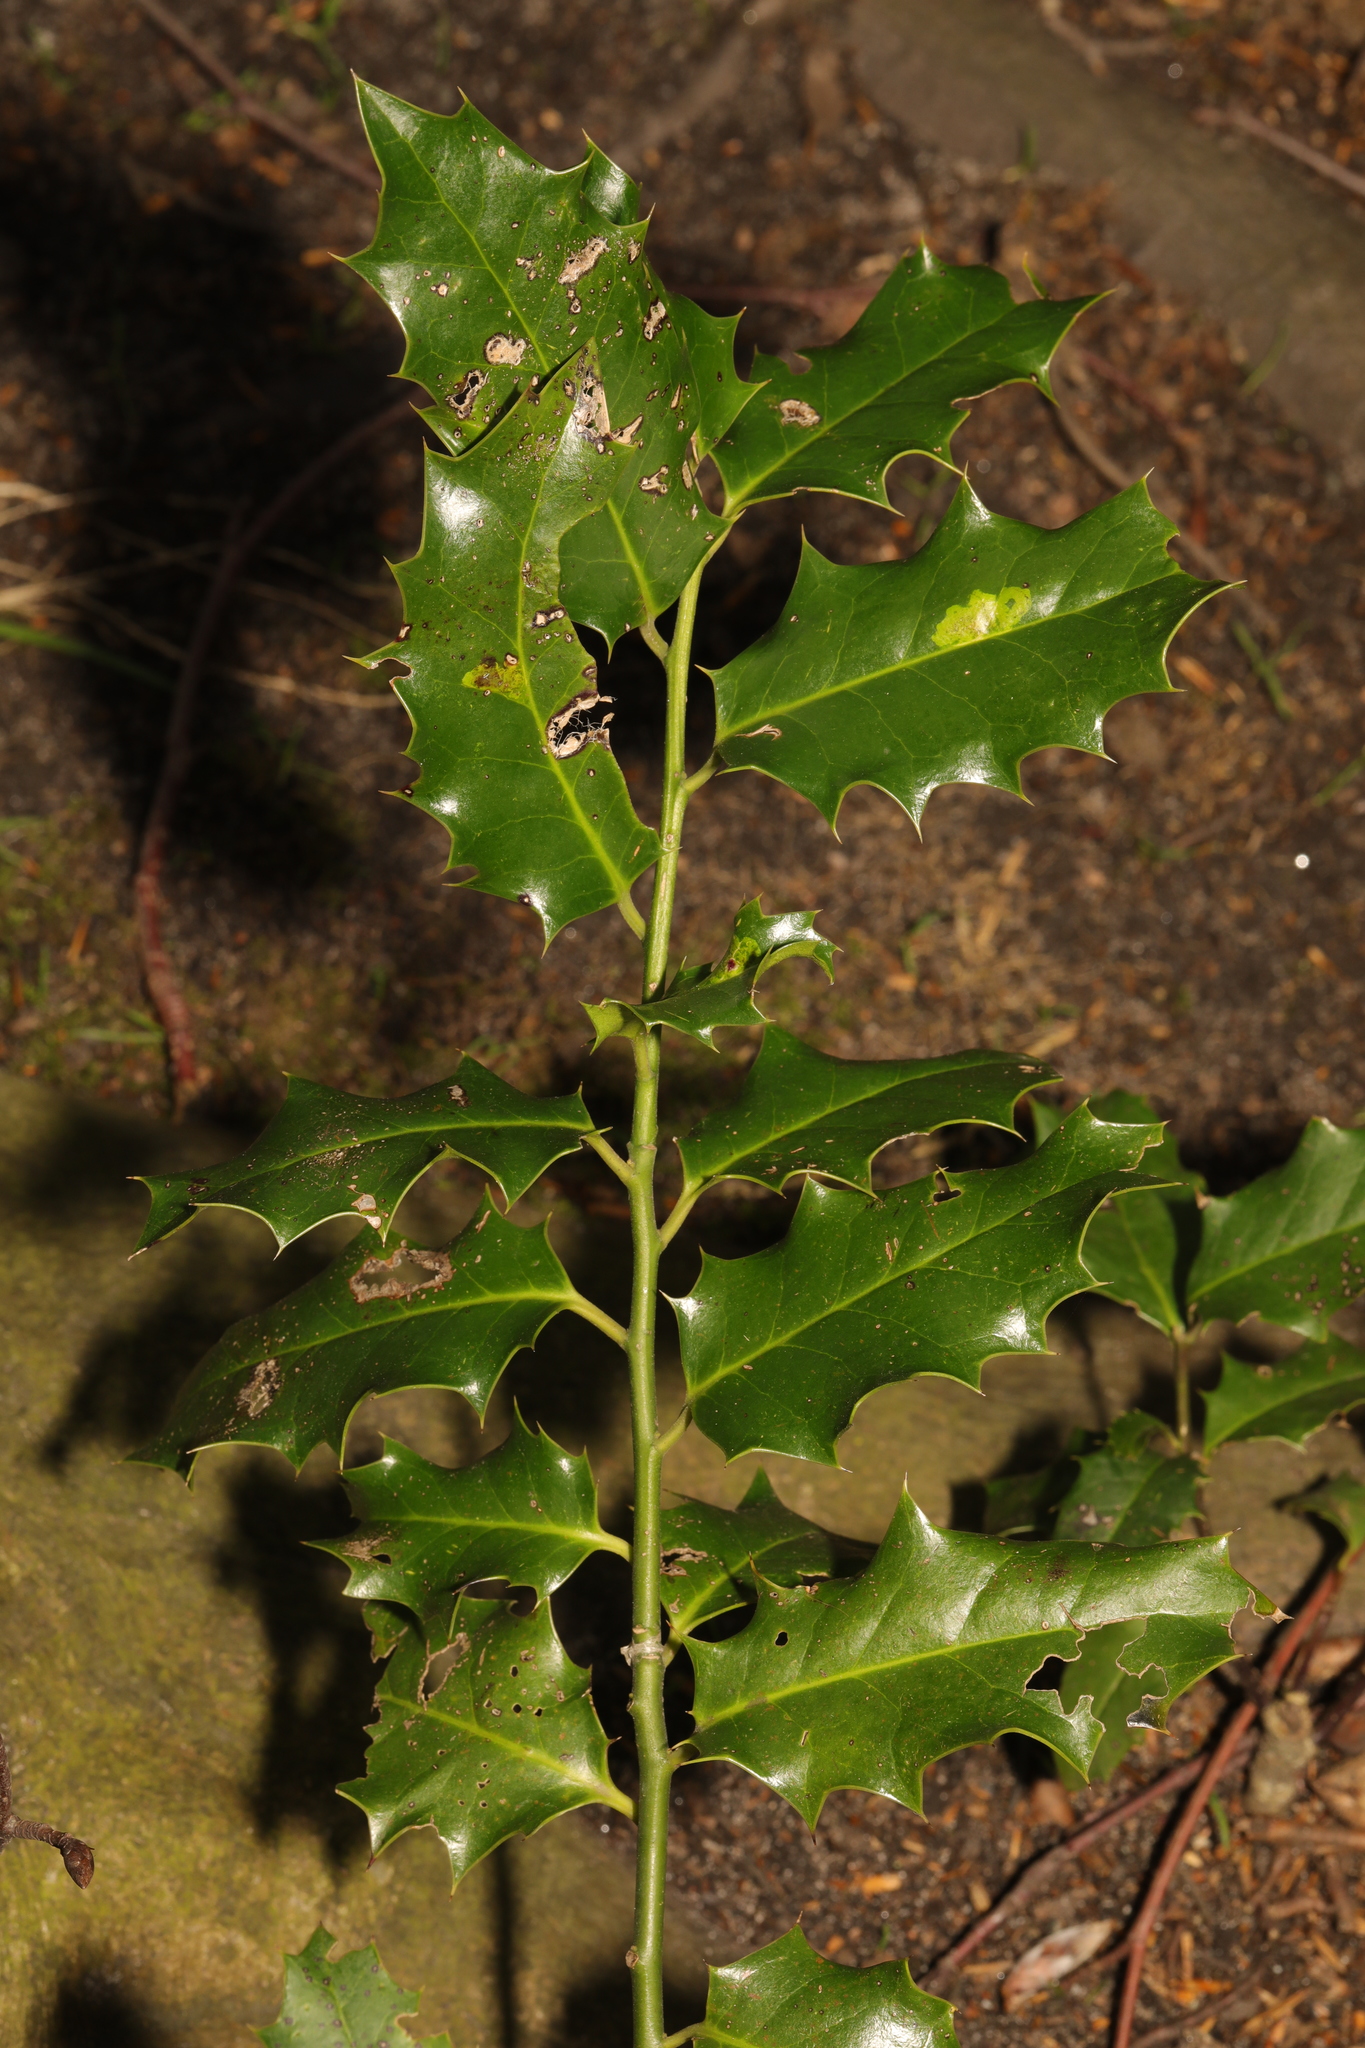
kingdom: Plantae
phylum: Tracheophyta
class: Magnoliopsida
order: Aquifoliales
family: Aquifoliaceae
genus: Ilex
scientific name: Ilex aquifolium
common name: English holly
